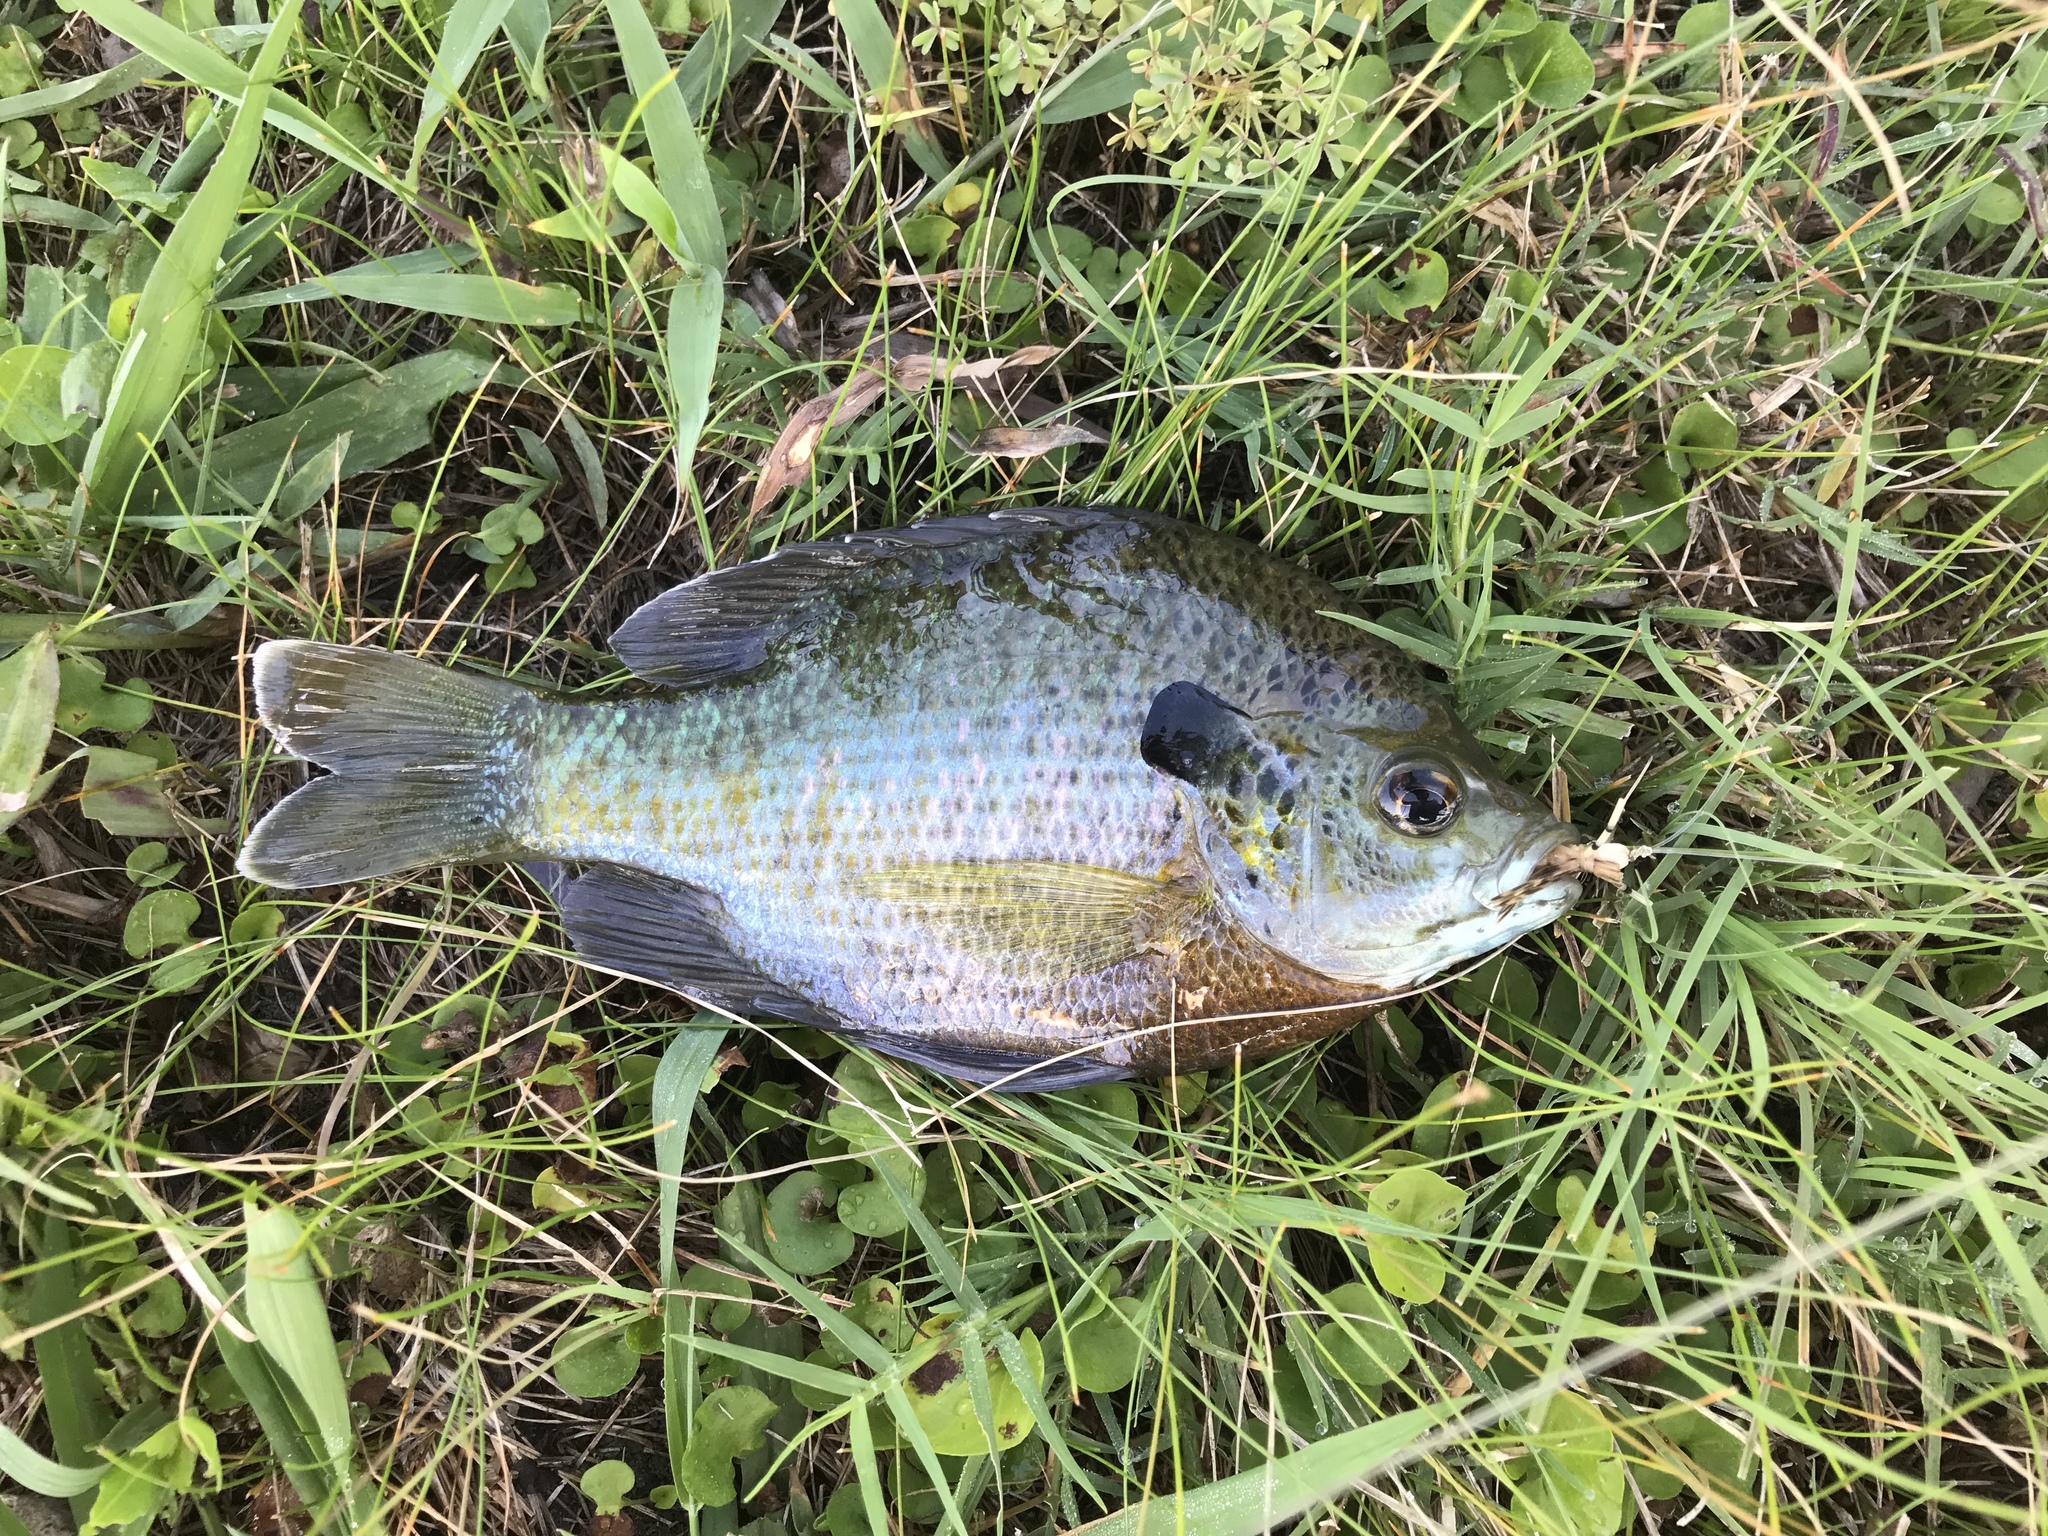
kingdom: Animalia
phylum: Chordata
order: Perciformes
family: Centrarchidae
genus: Lepomis
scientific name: Lepomis macrochirus
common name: Bluegill
